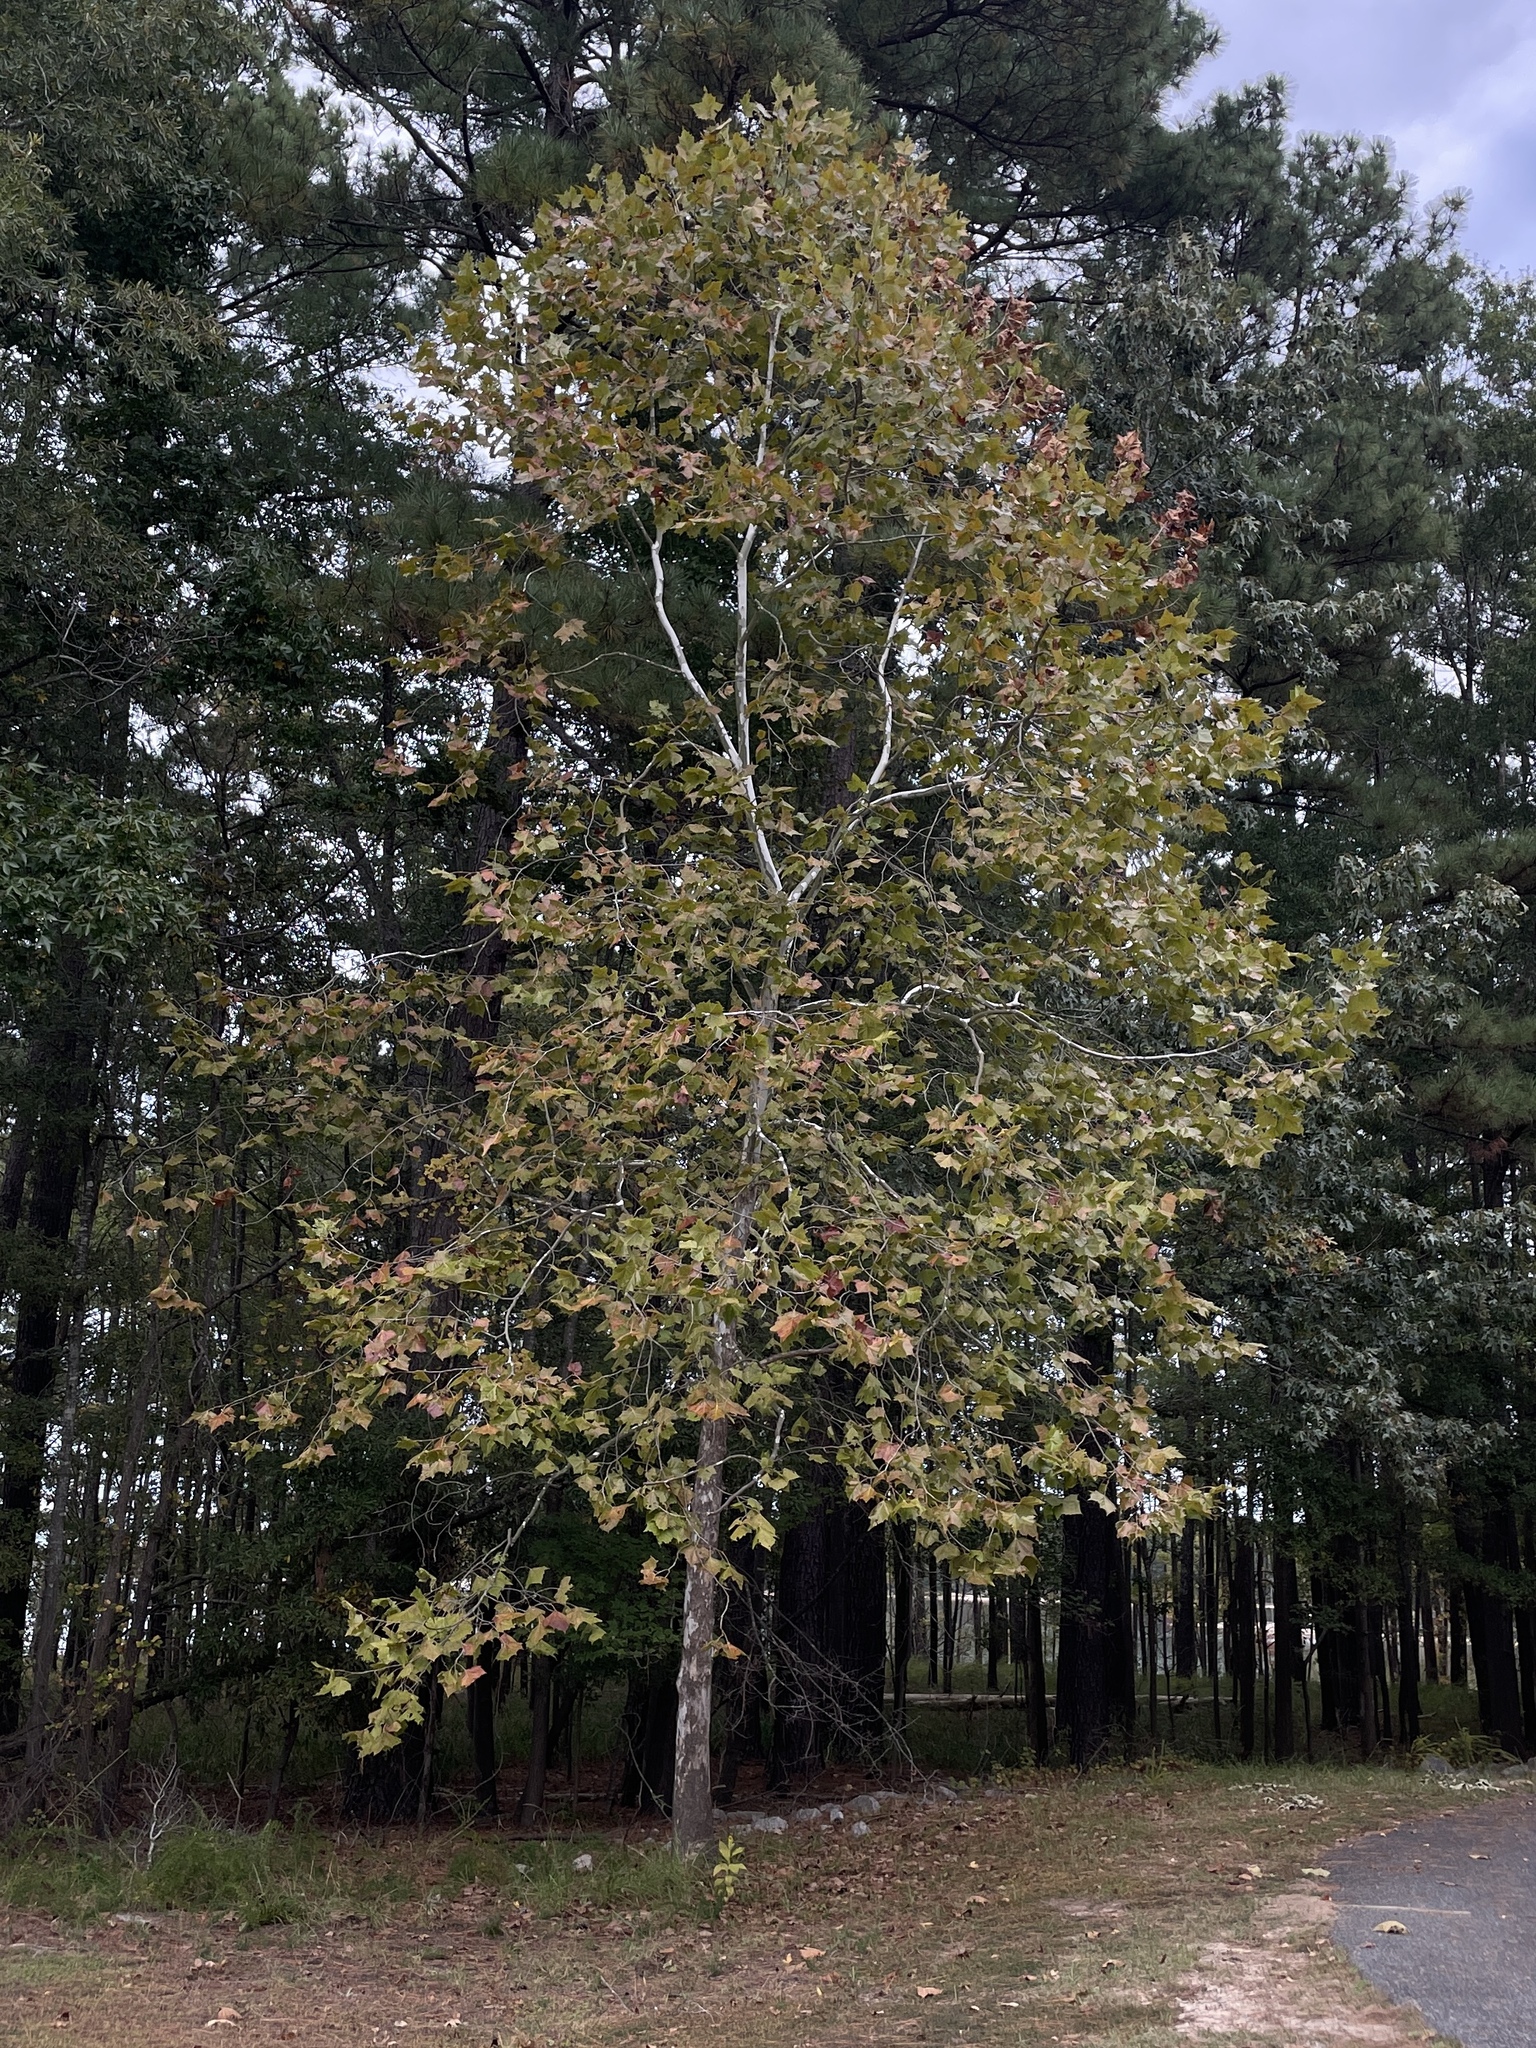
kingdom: Plantae
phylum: Tracheophyta
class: Magnoliopsida
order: Proteales
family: Platanaceae
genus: Platanus
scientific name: Platanus occidentalis
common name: American sycamore
